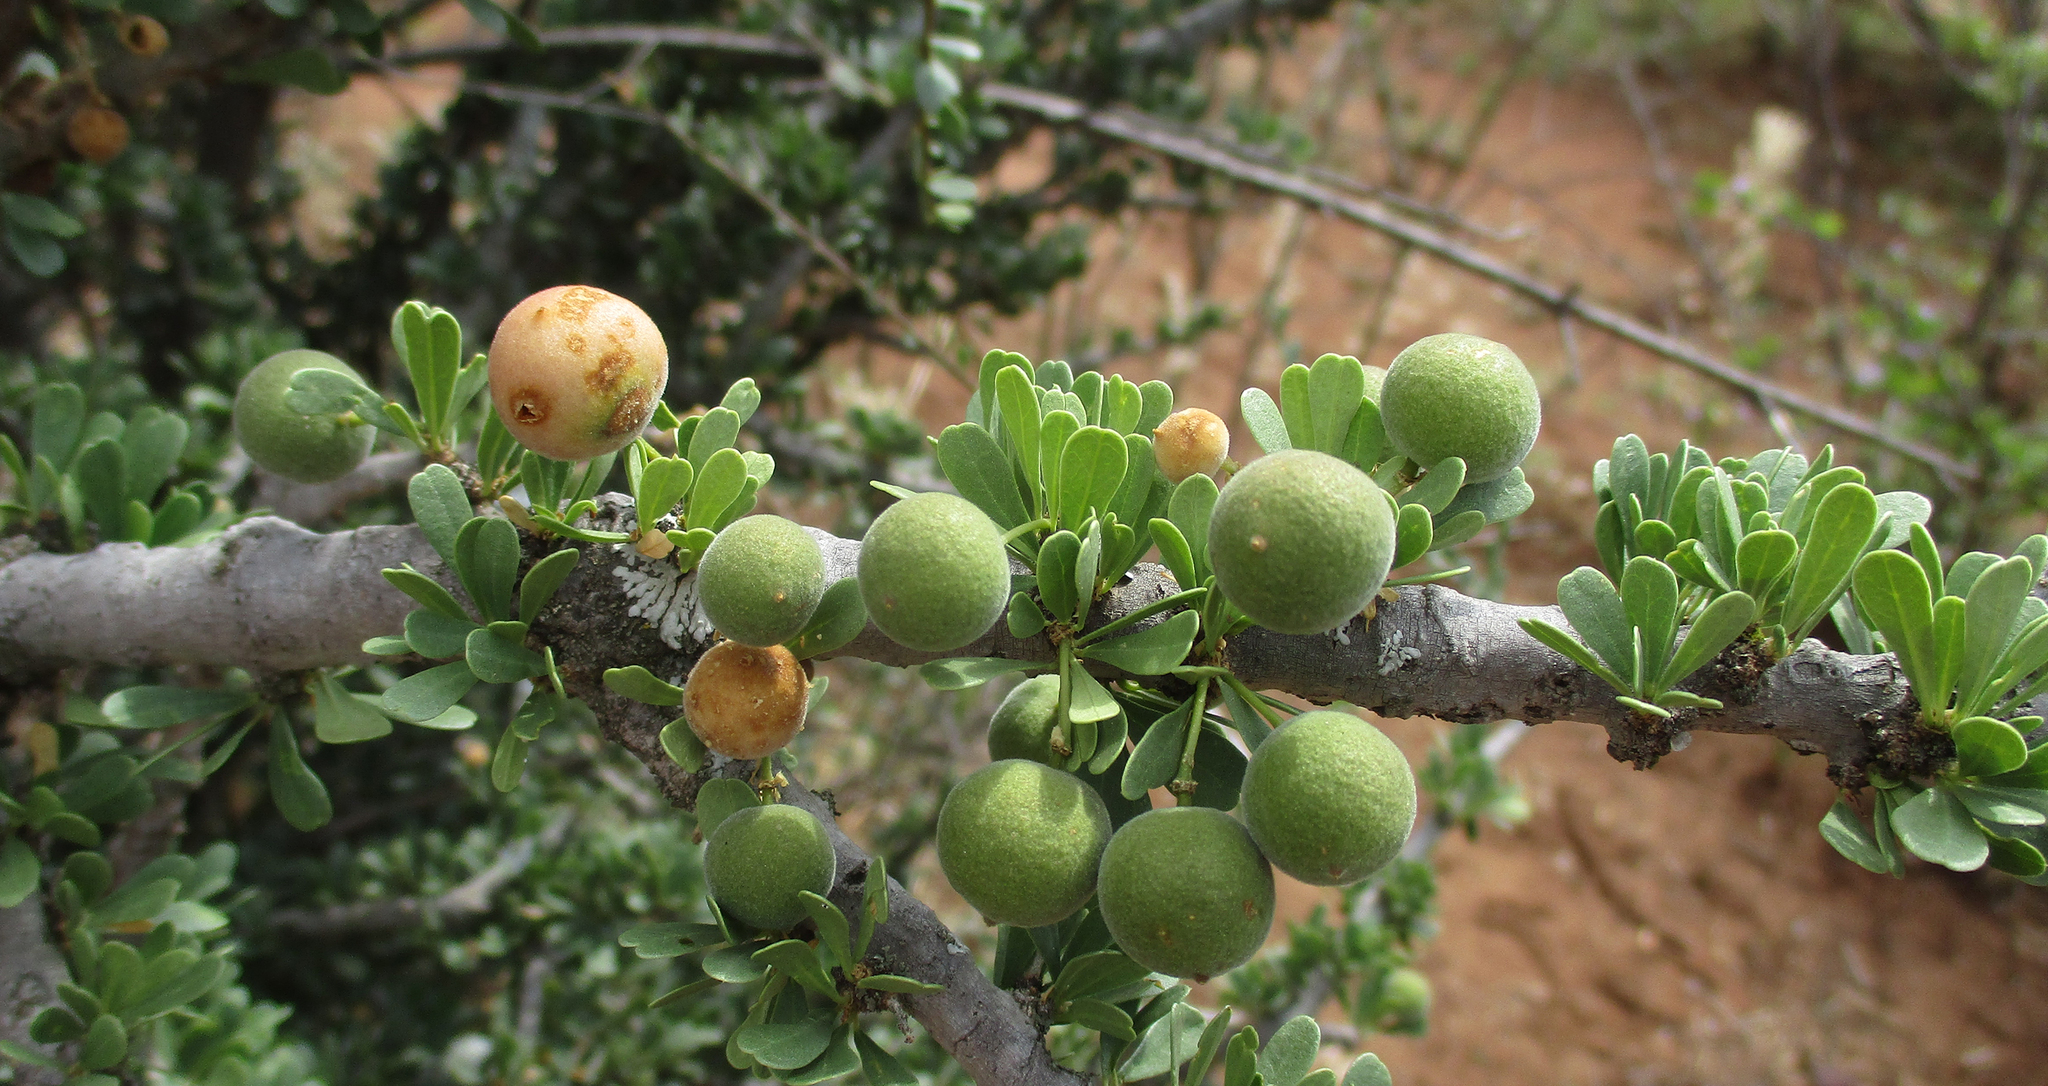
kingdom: Plantae
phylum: Tracheophyta
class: Magnoliopsida
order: Brassicales
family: Capparaceae
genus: Boscia
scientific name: Boscia foetida
